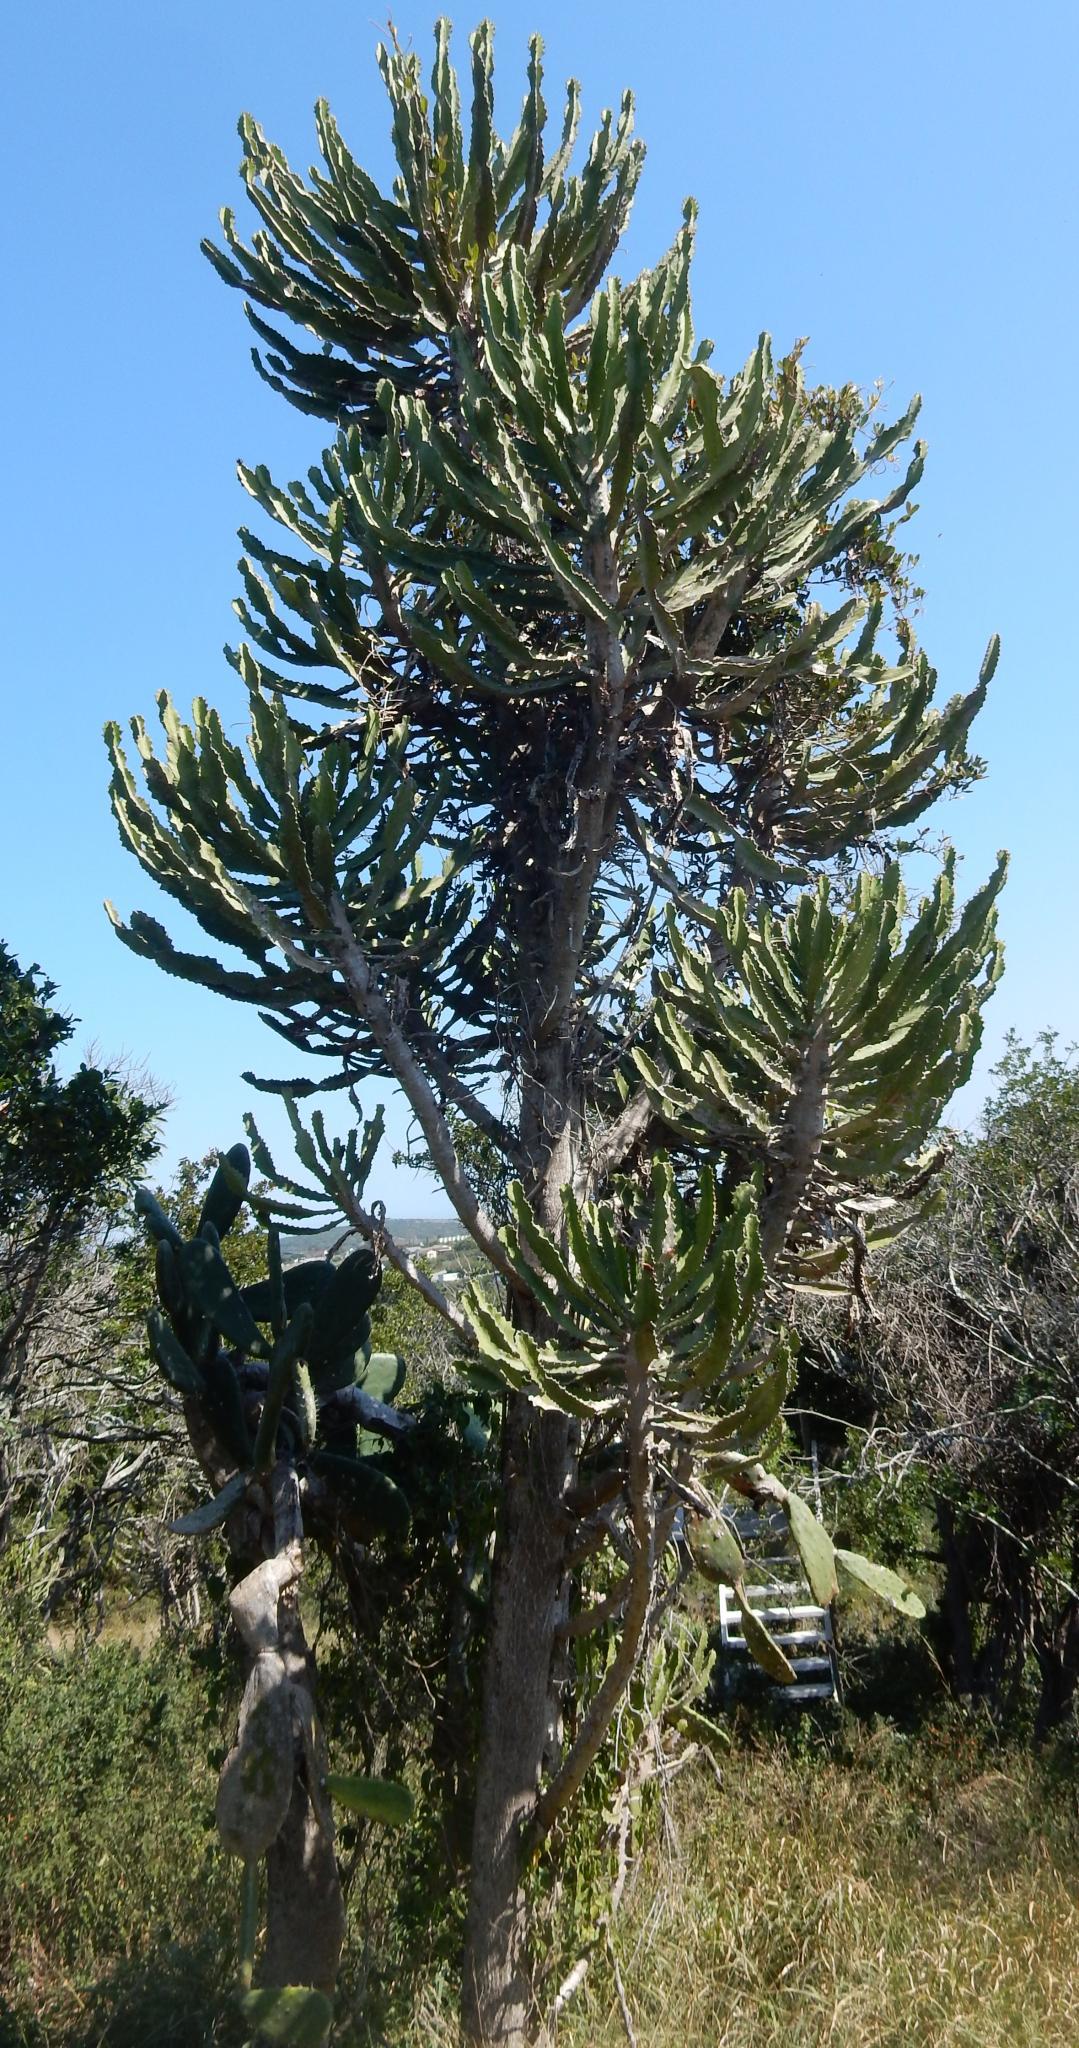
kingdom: Plantae
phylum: Tracheophyta
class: Magnoliopsida
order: Malpighiales
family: Euphorbiaceae
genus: Euphorbia
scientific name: Euphorbia triangularis
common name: Chandelier tree
